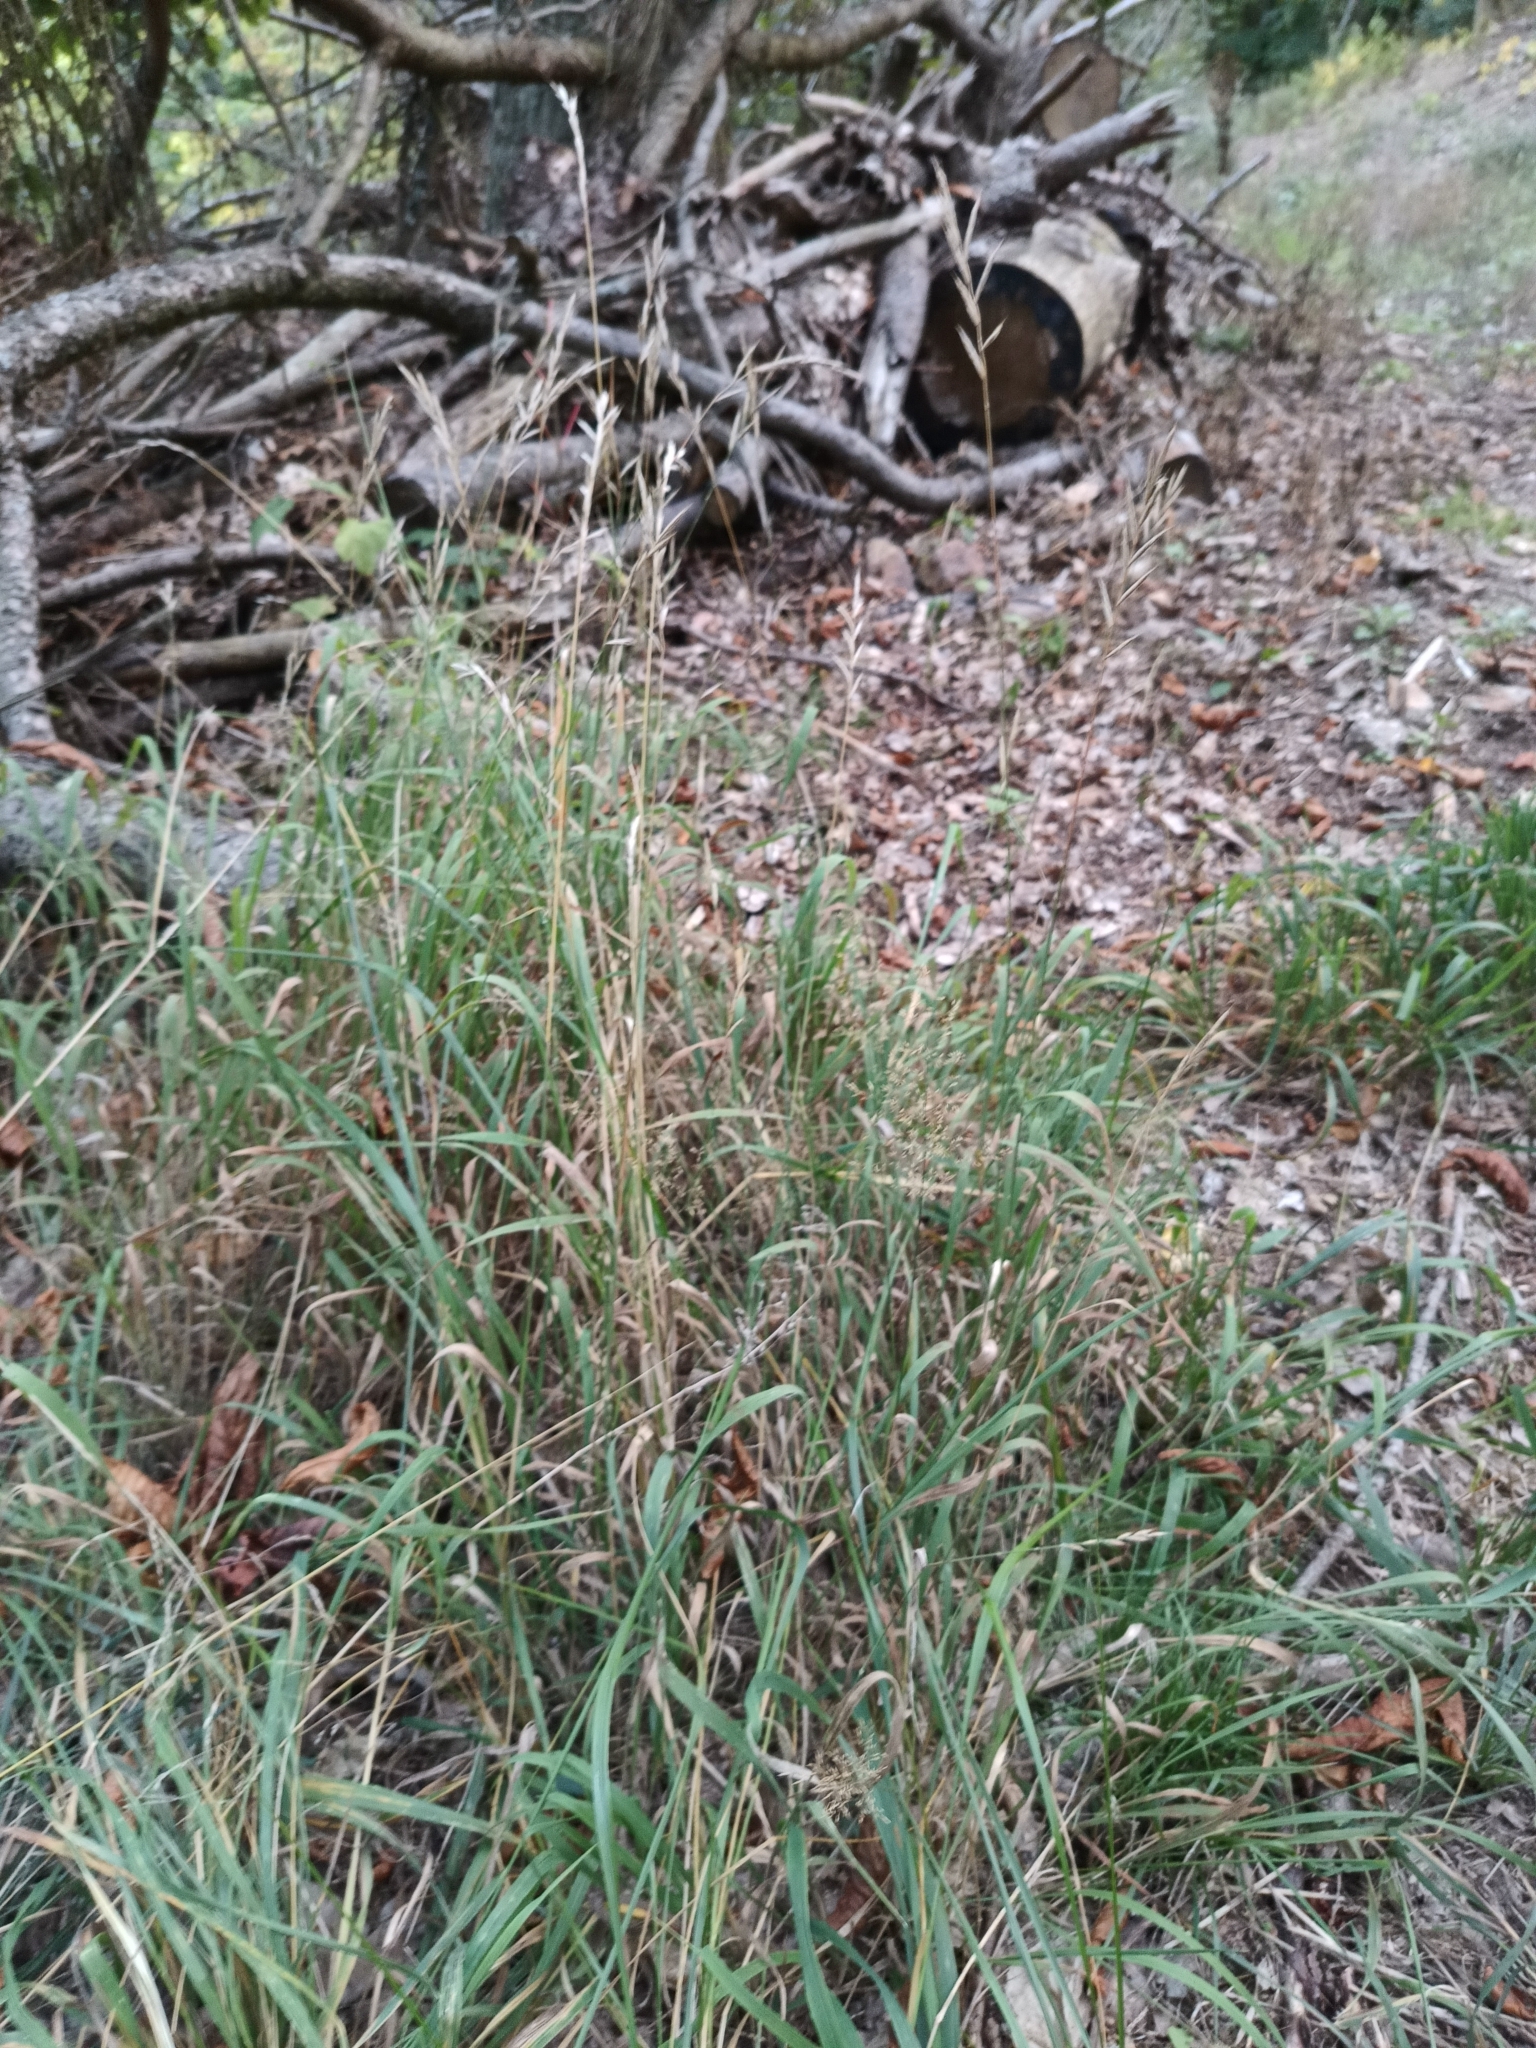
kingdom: Plantae
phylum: Tracheophyta
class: Liliopsida
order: Poales
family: Poaceae
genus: Brachypodium
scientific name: Brachypodium pinnatum
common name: Tor grass
